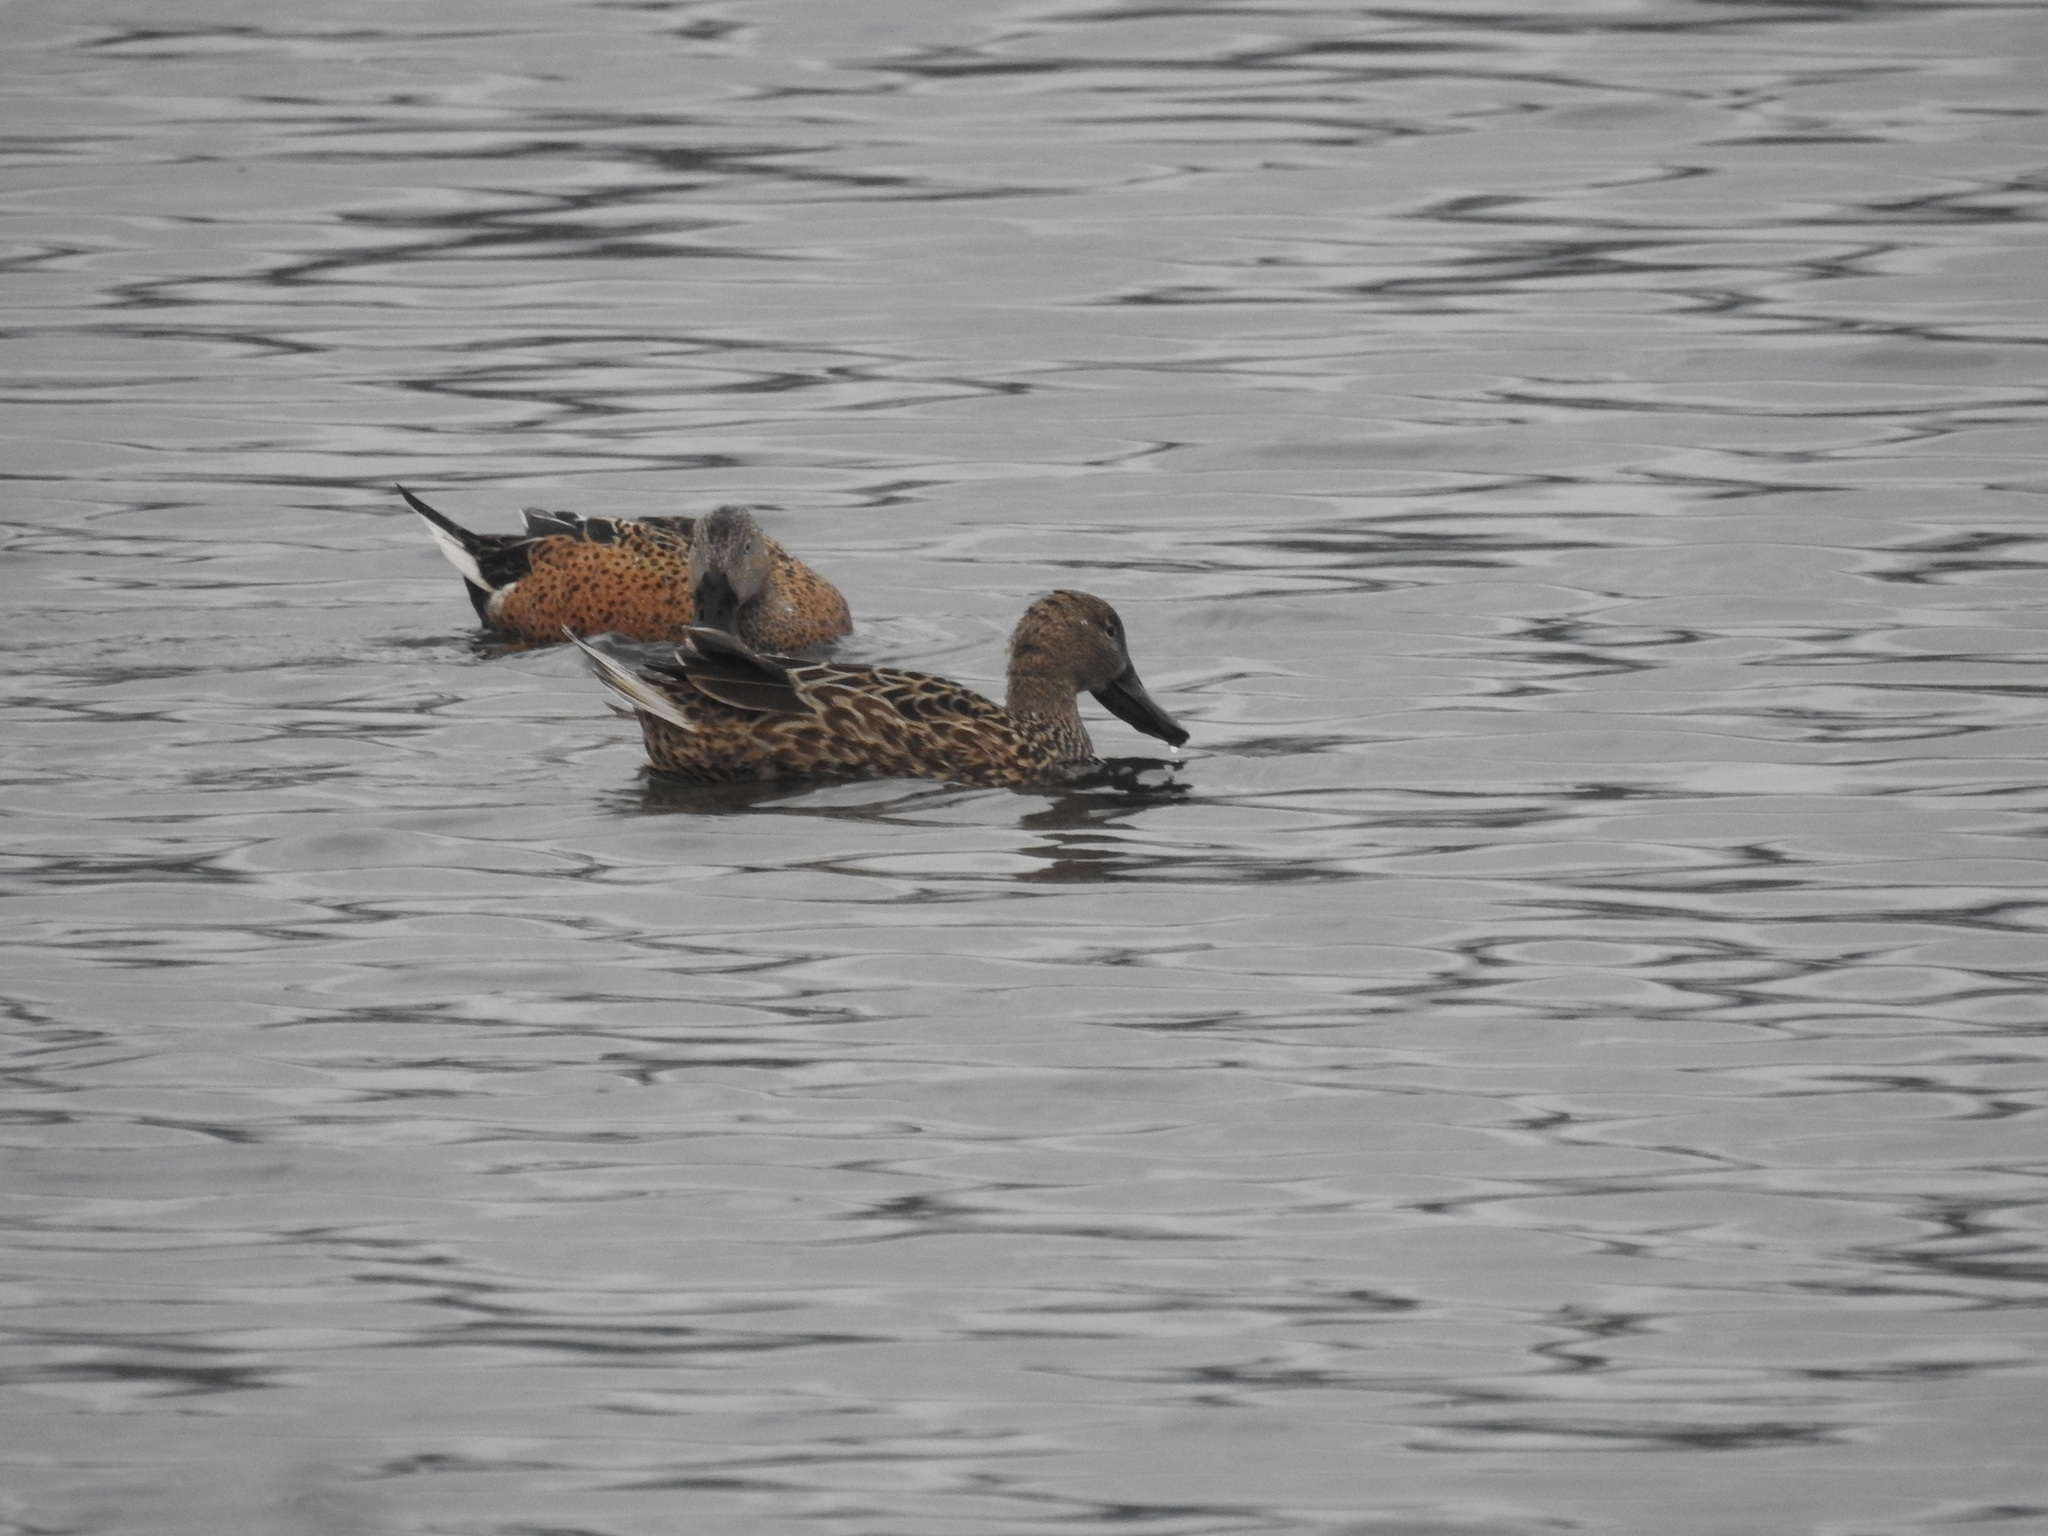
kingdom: Animalia
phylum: Chordata
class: Aves
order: Anseriformes
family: Anatidae
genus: Spatula
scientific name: Spatula platalea
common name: Red shoveler
